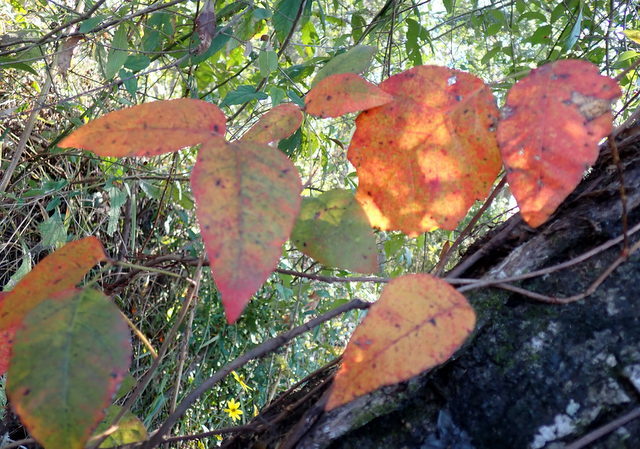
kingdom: Plantae
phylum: Tracheophyta
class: Magnoliopsida
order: Sapindales
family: Anacardiaceae
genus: Toxicodendron
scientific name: Toxicodendron radicans
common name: Poison ivy
